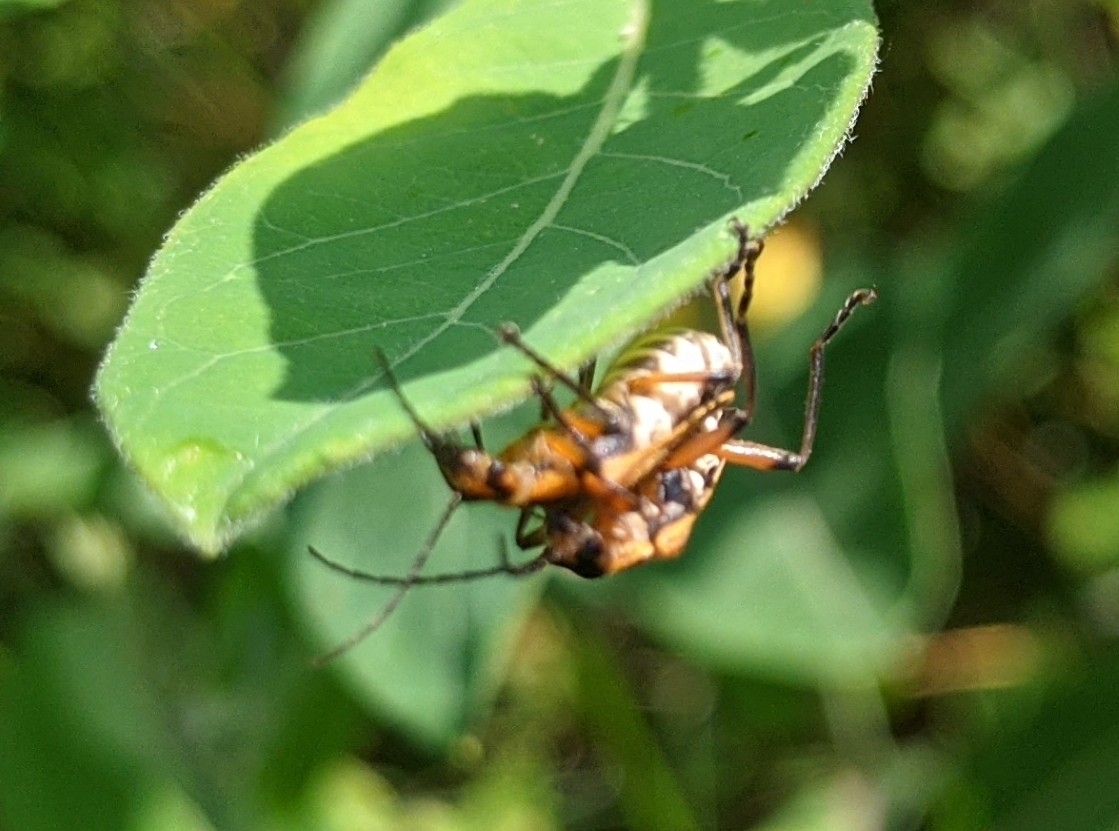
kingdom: Animalia
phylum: Arthropoda
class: Insecta
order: Coleoptera
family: Cantharidae
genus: Chauliognathus
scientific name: Chauliognathus marginatus
